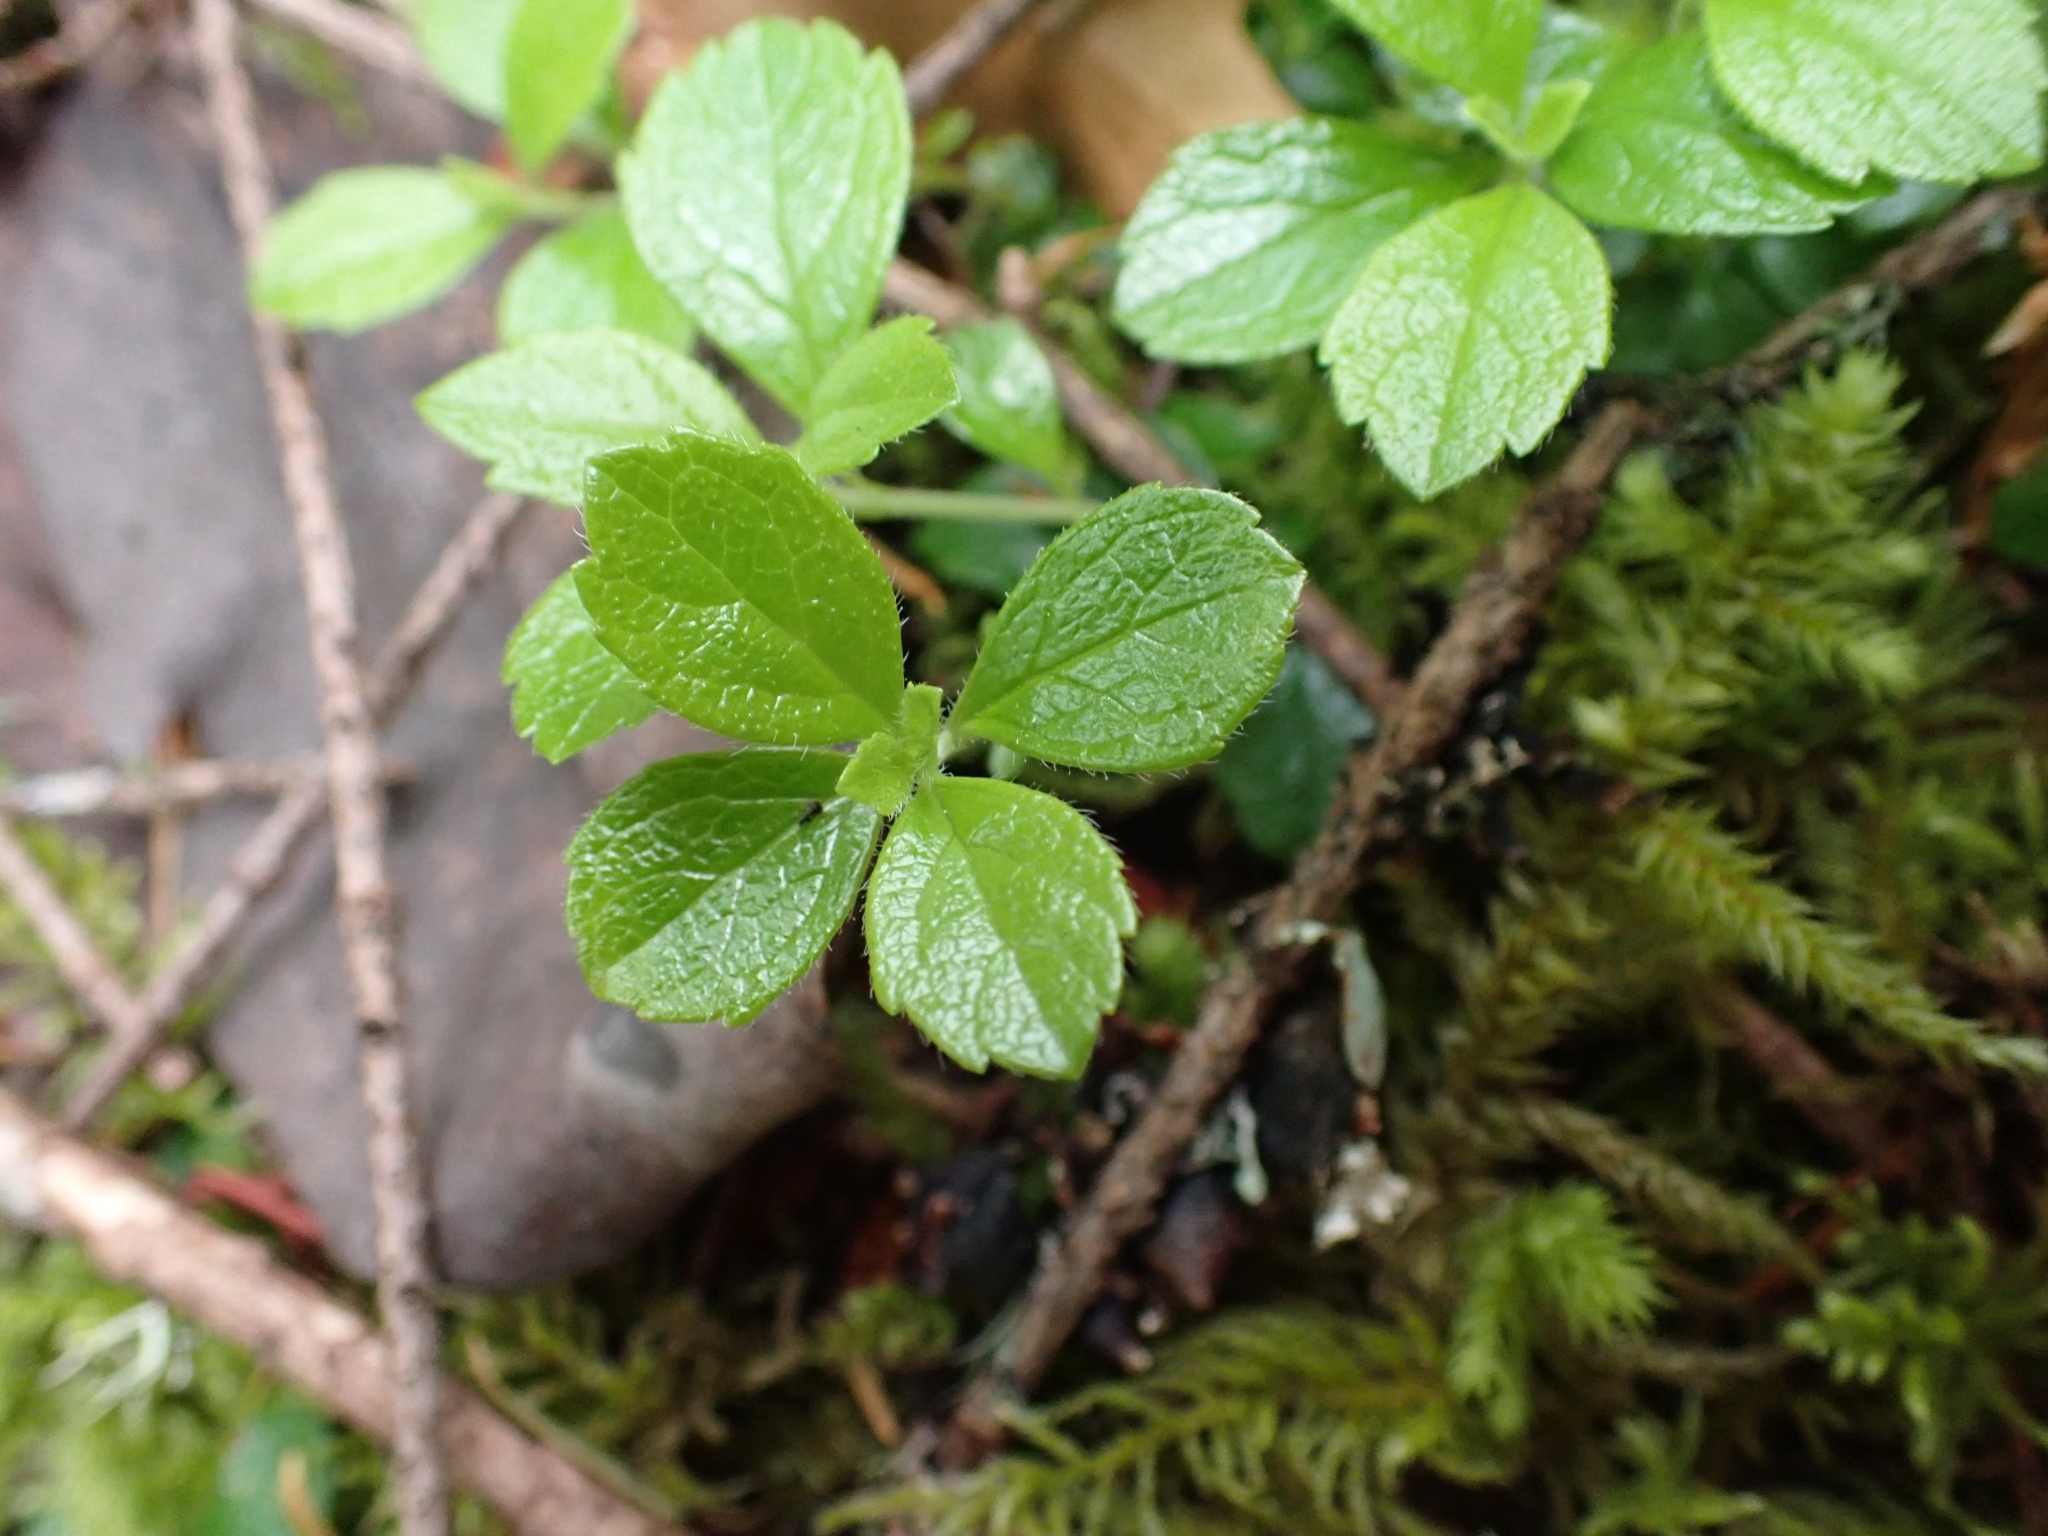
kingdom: Plantae
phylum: Tracheophyta
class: Magnoliopsida
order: Dipsacales
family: Caprifoliaceae
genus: Linnaea
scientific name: Linnaea borealis
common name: Twinflower
